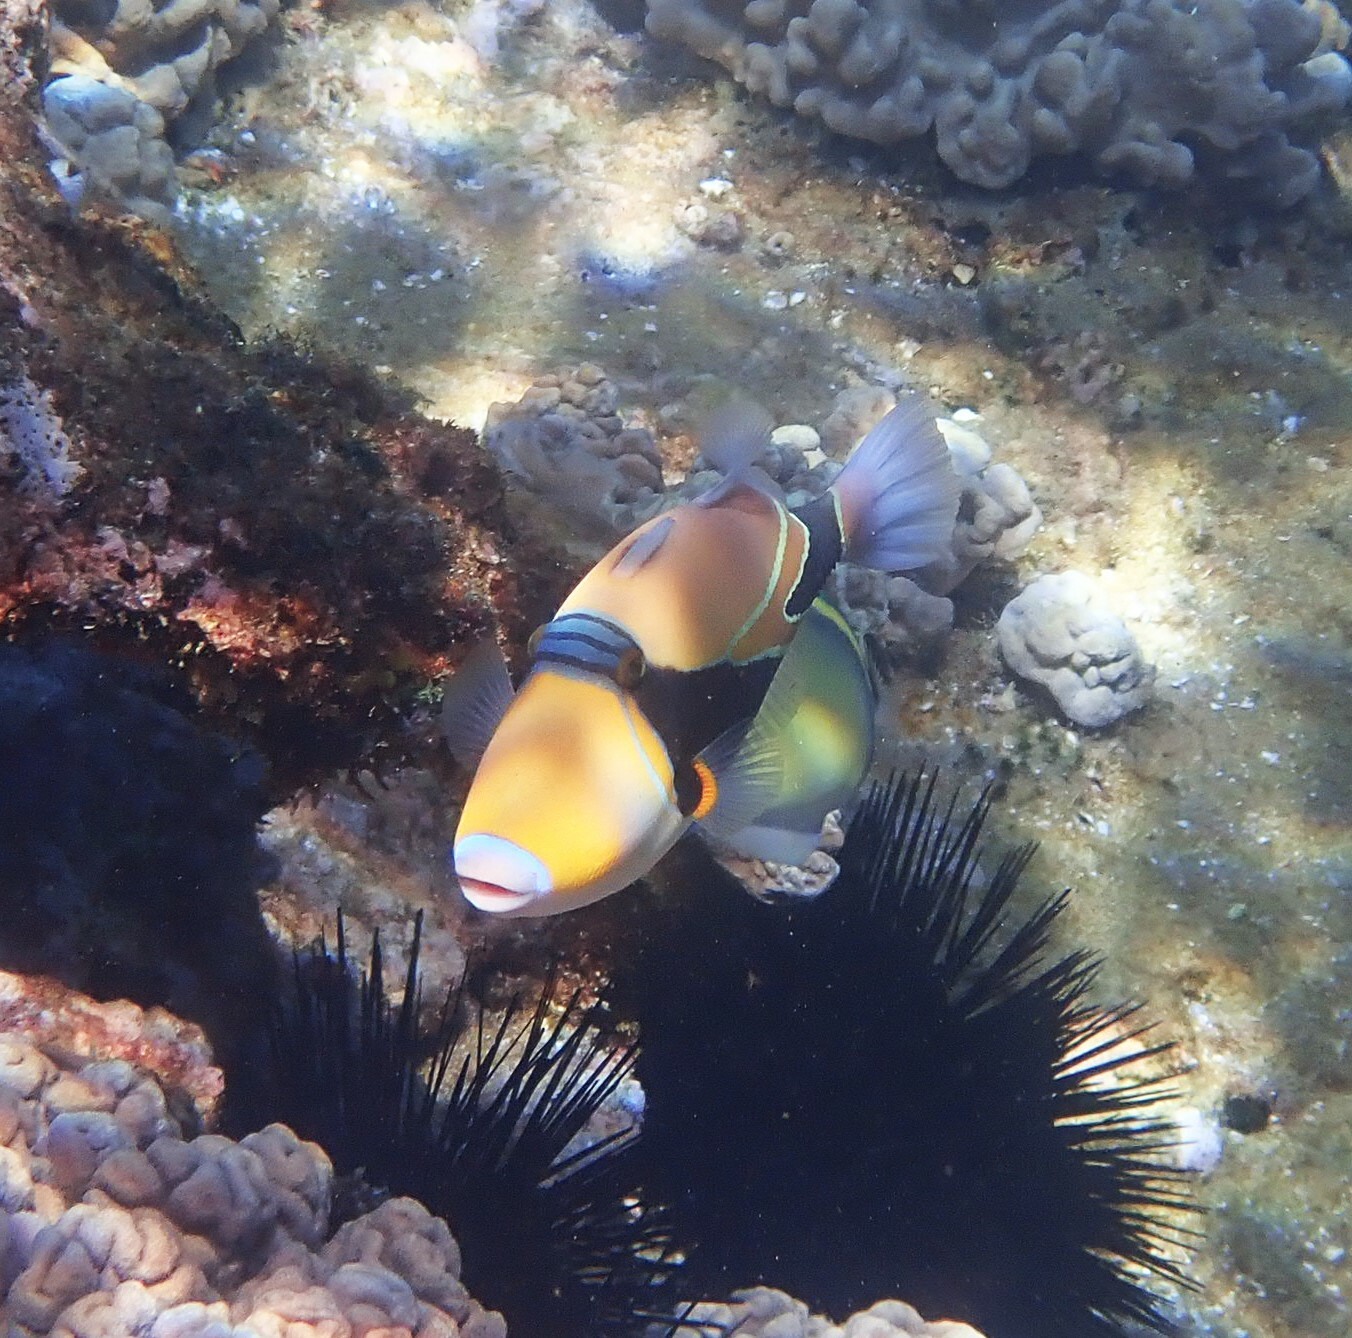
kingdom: Animalia
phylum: Chordata
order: Tetraodontiformes
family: Balistidae
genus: Rhinecanthus
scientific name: Rhinecanthus rectangulus
